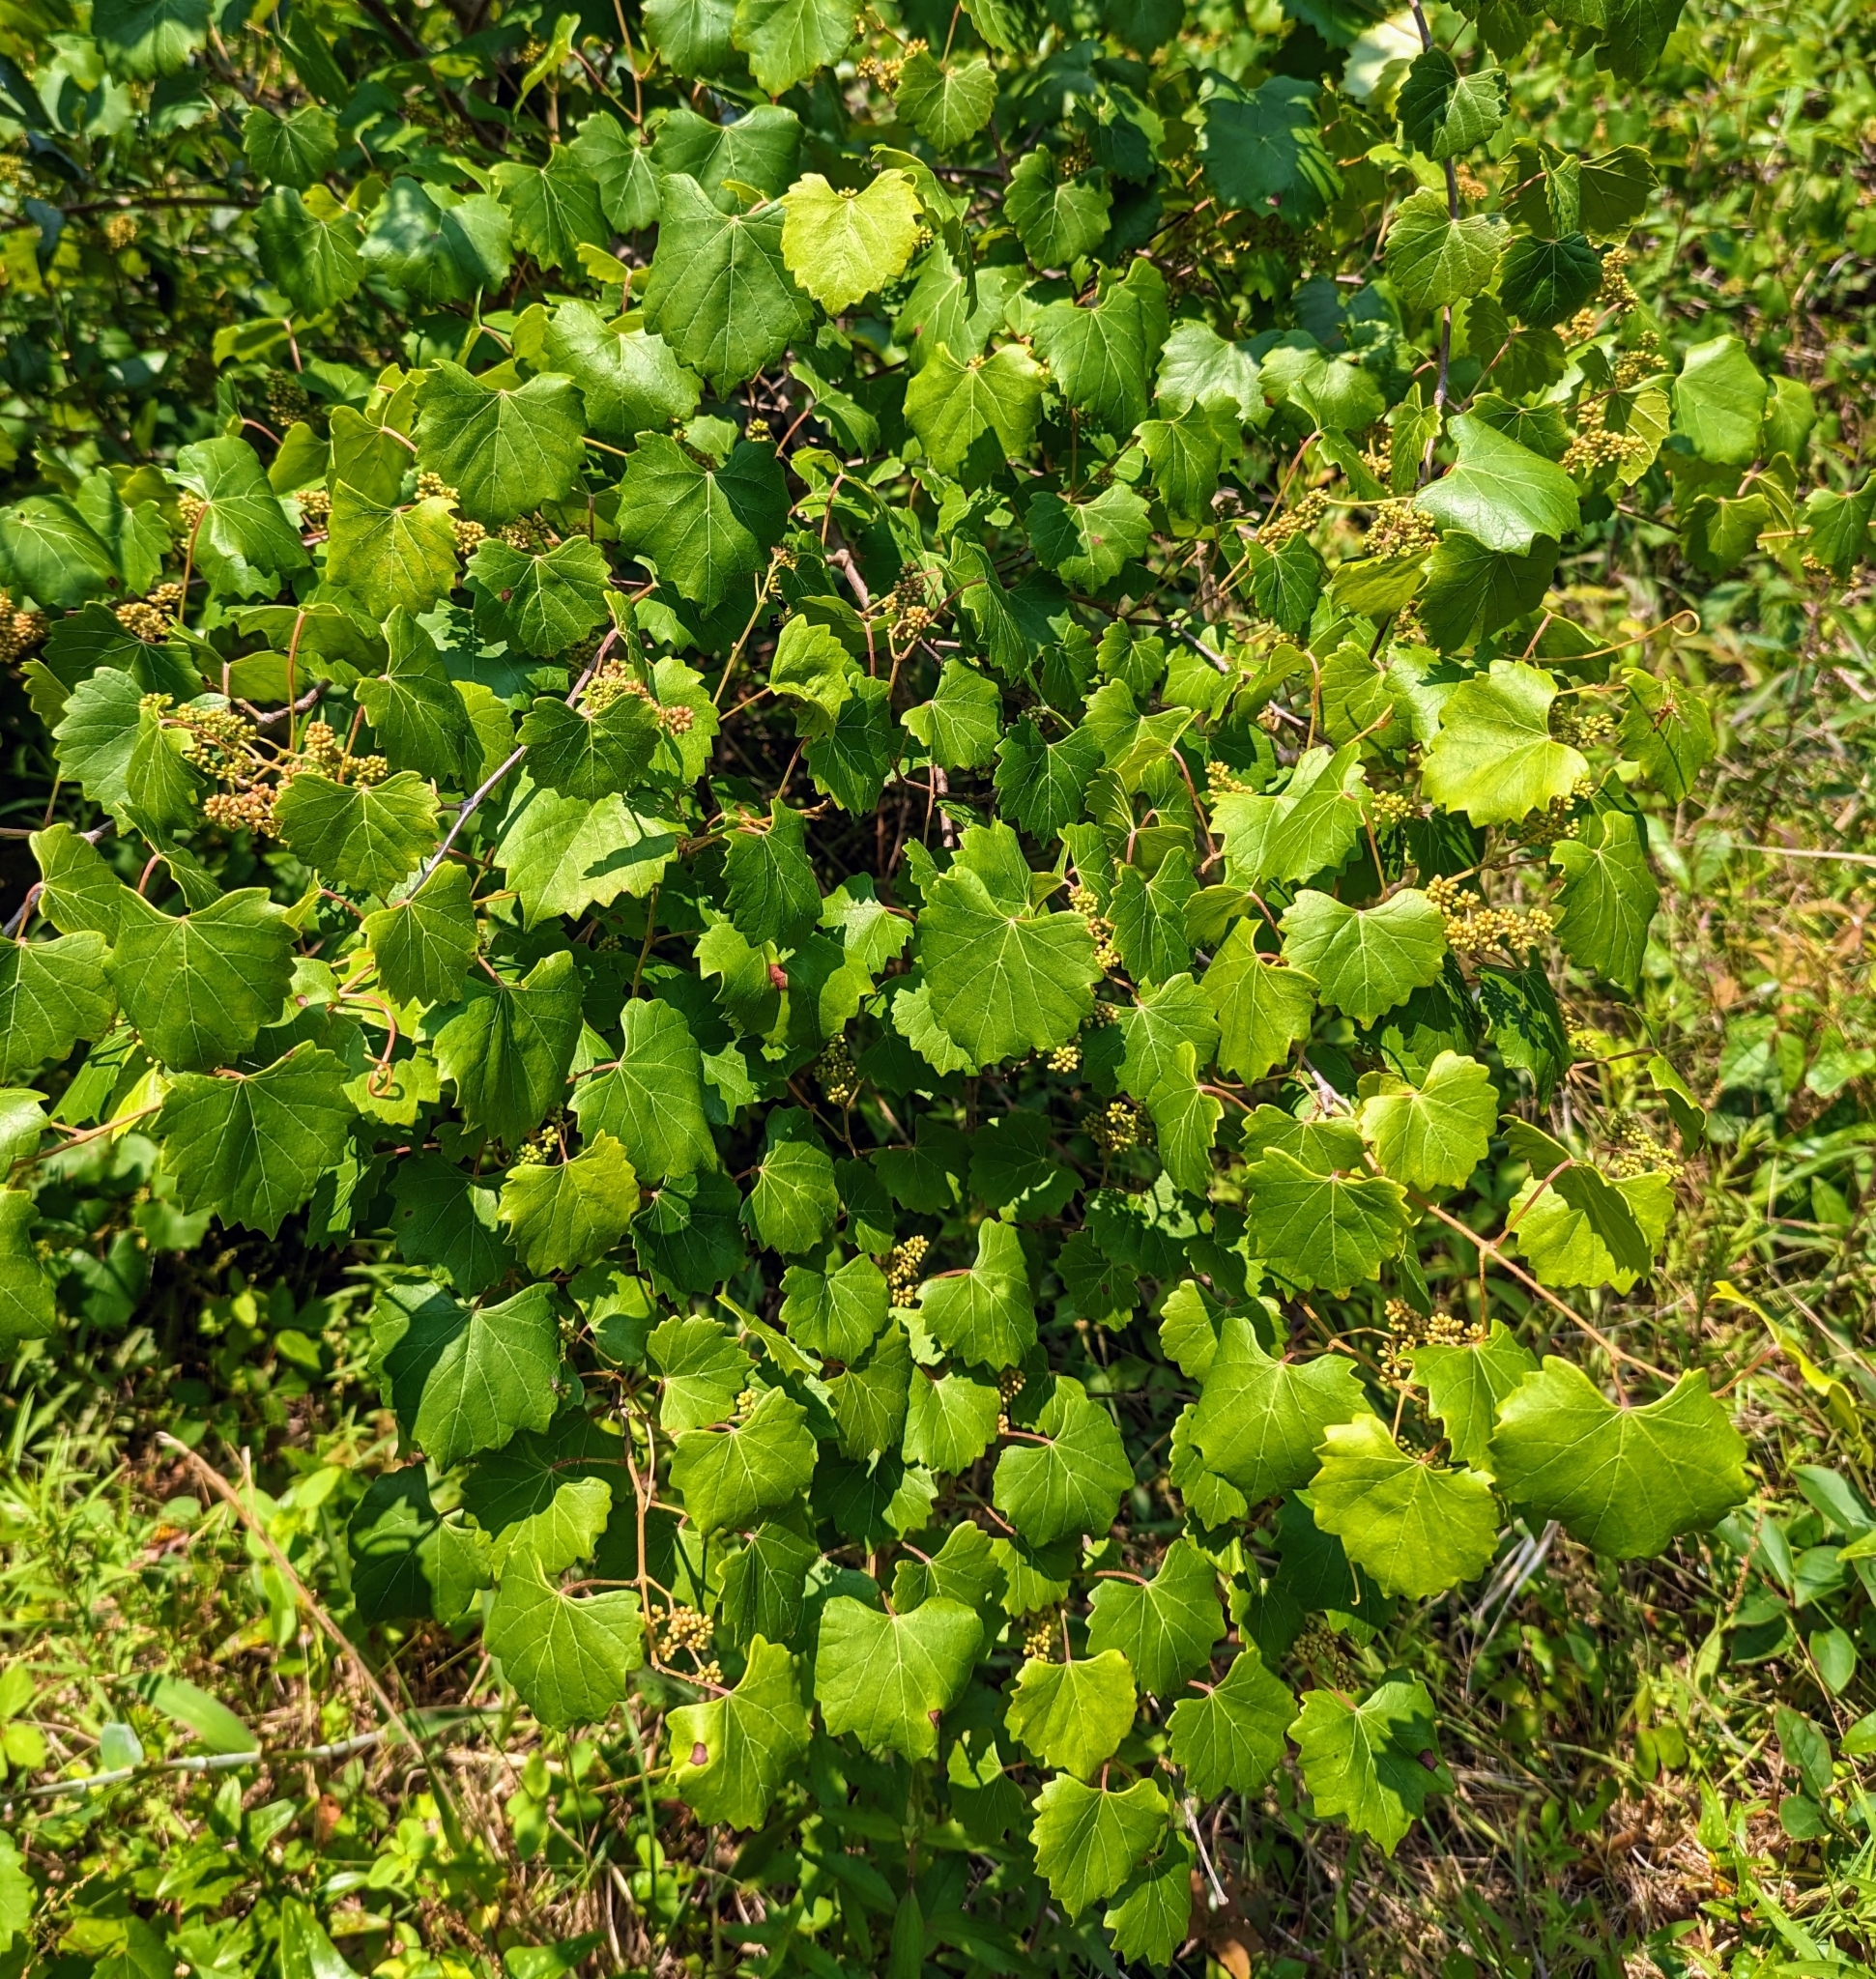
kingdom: Plantae
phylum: Tracheophyta
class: Magnoliopsida
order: Vitales
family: Vitaceae
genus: Vitis
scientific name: Vitis rotundifolia
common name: Muscadine grape
